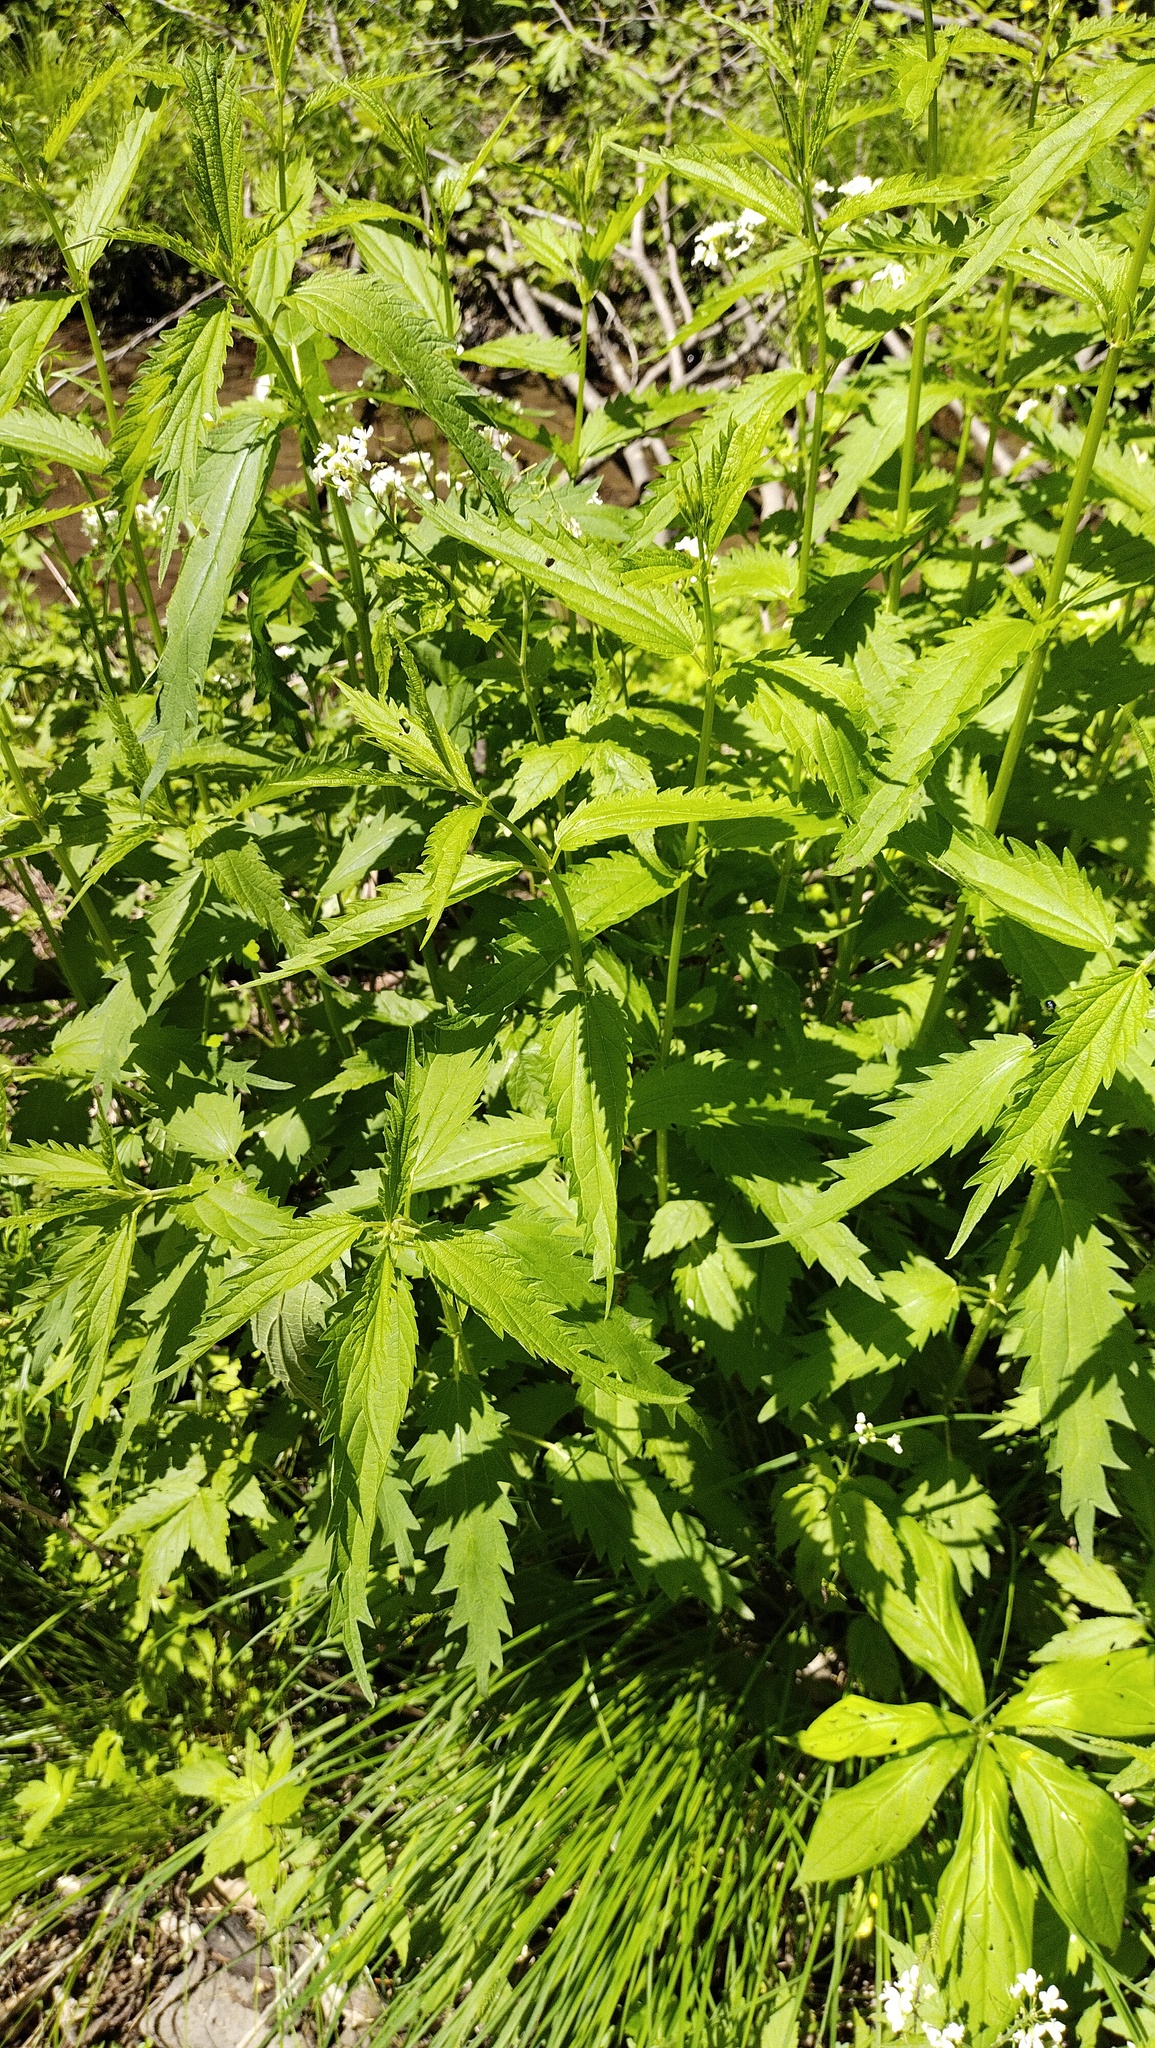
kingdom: Plantae
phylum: Tracheophyta
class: Magnoliopsida
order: Brassicales
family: Brassicaceae
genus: Cardamine
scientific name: Cardamine leucantha
